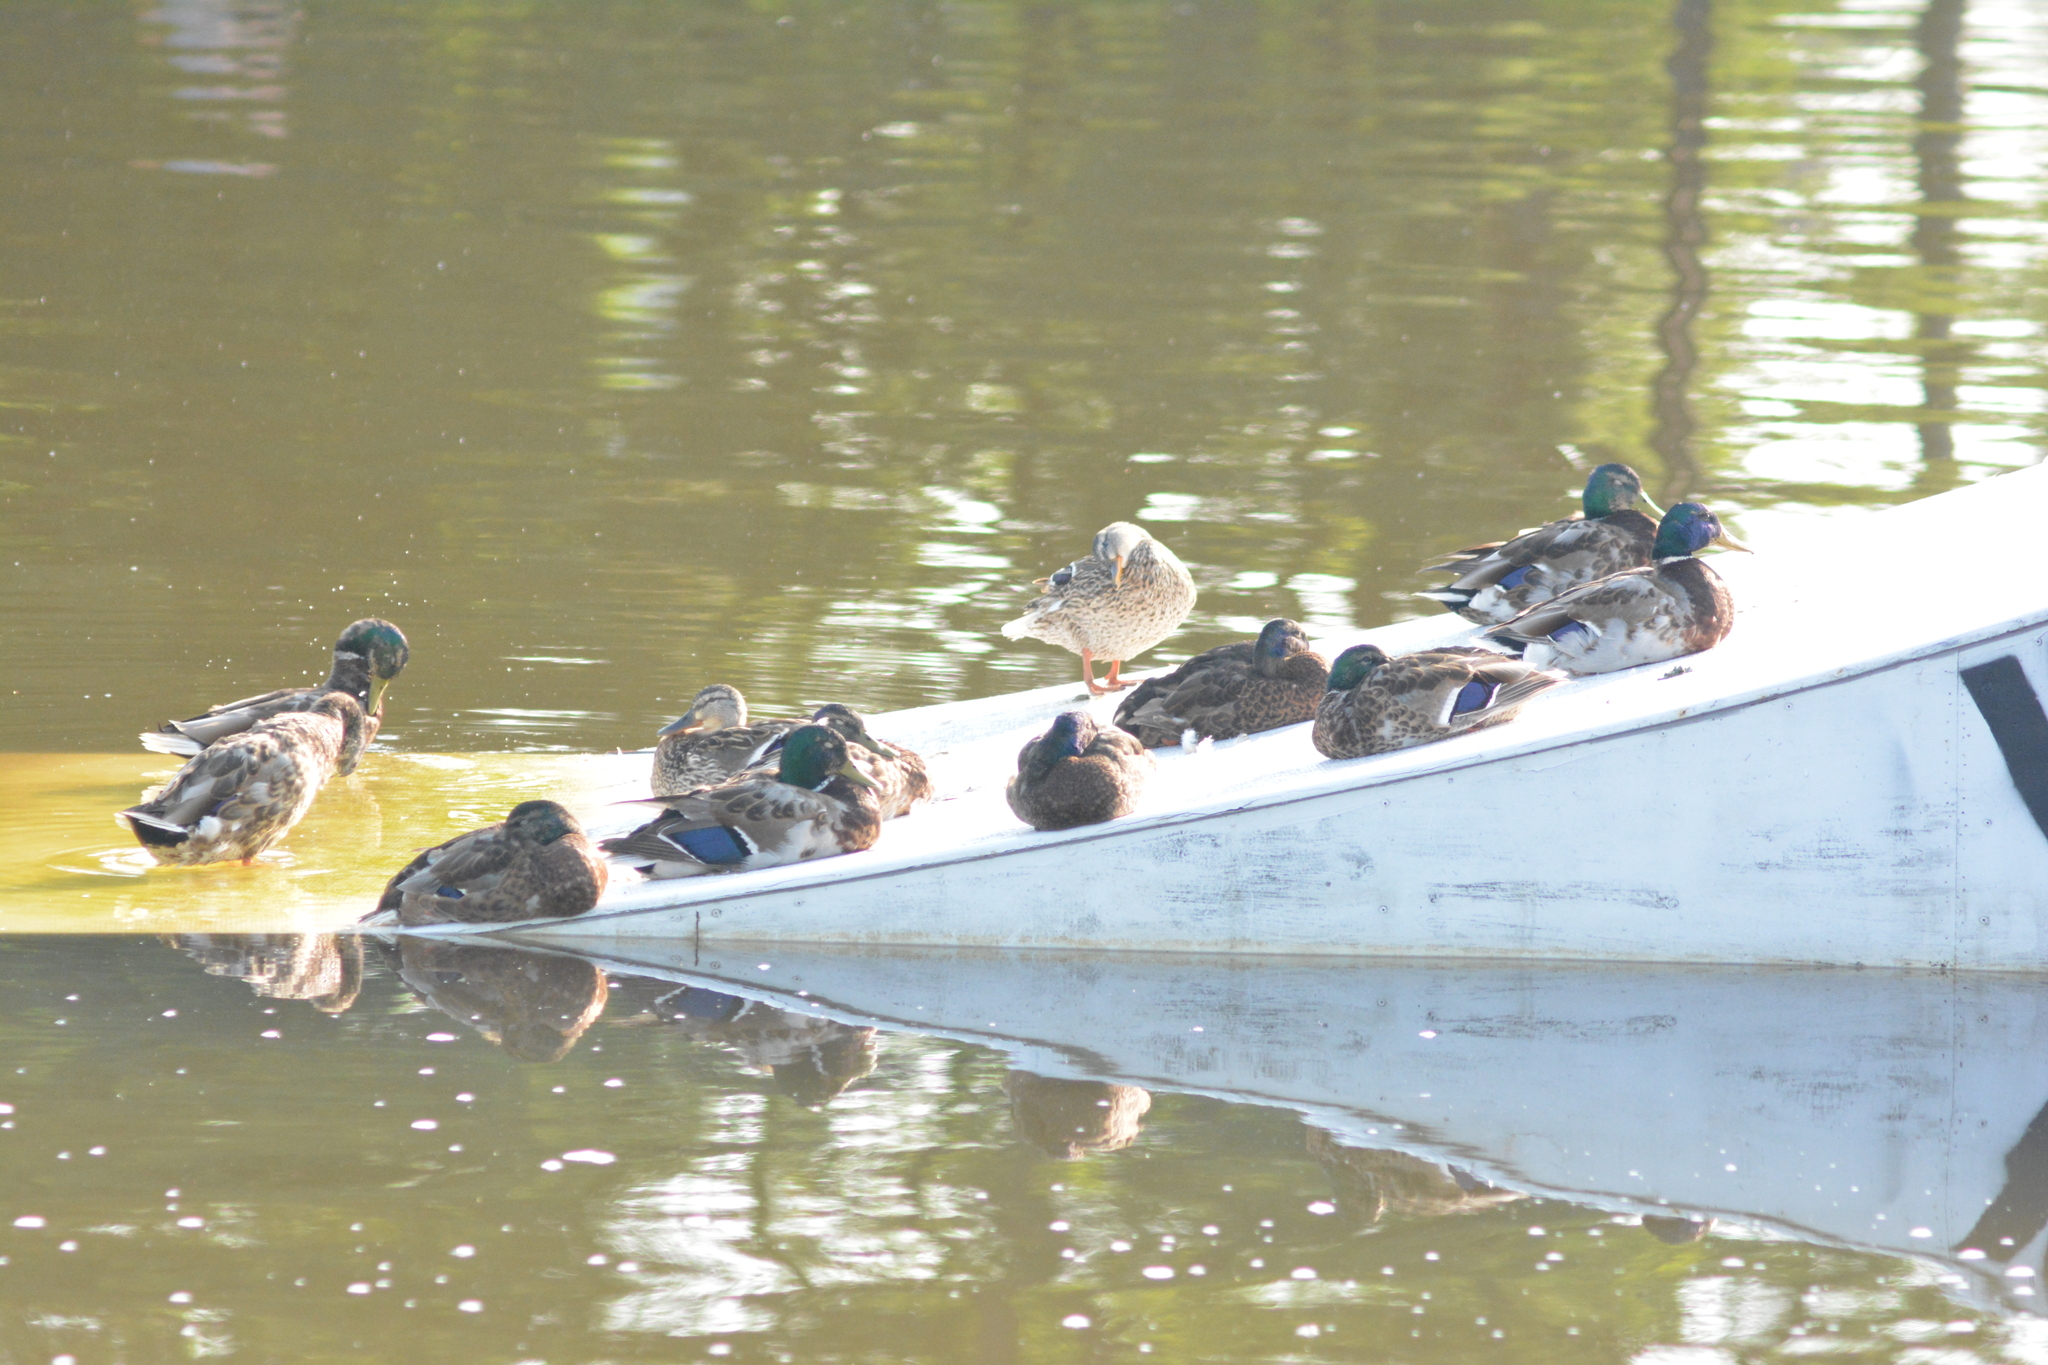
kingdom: Animalia
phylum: Chordata
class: Aves
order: Anseriformes
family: Anatidae
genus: Anas
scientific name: Anas platyrhynchos
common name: Mallard
